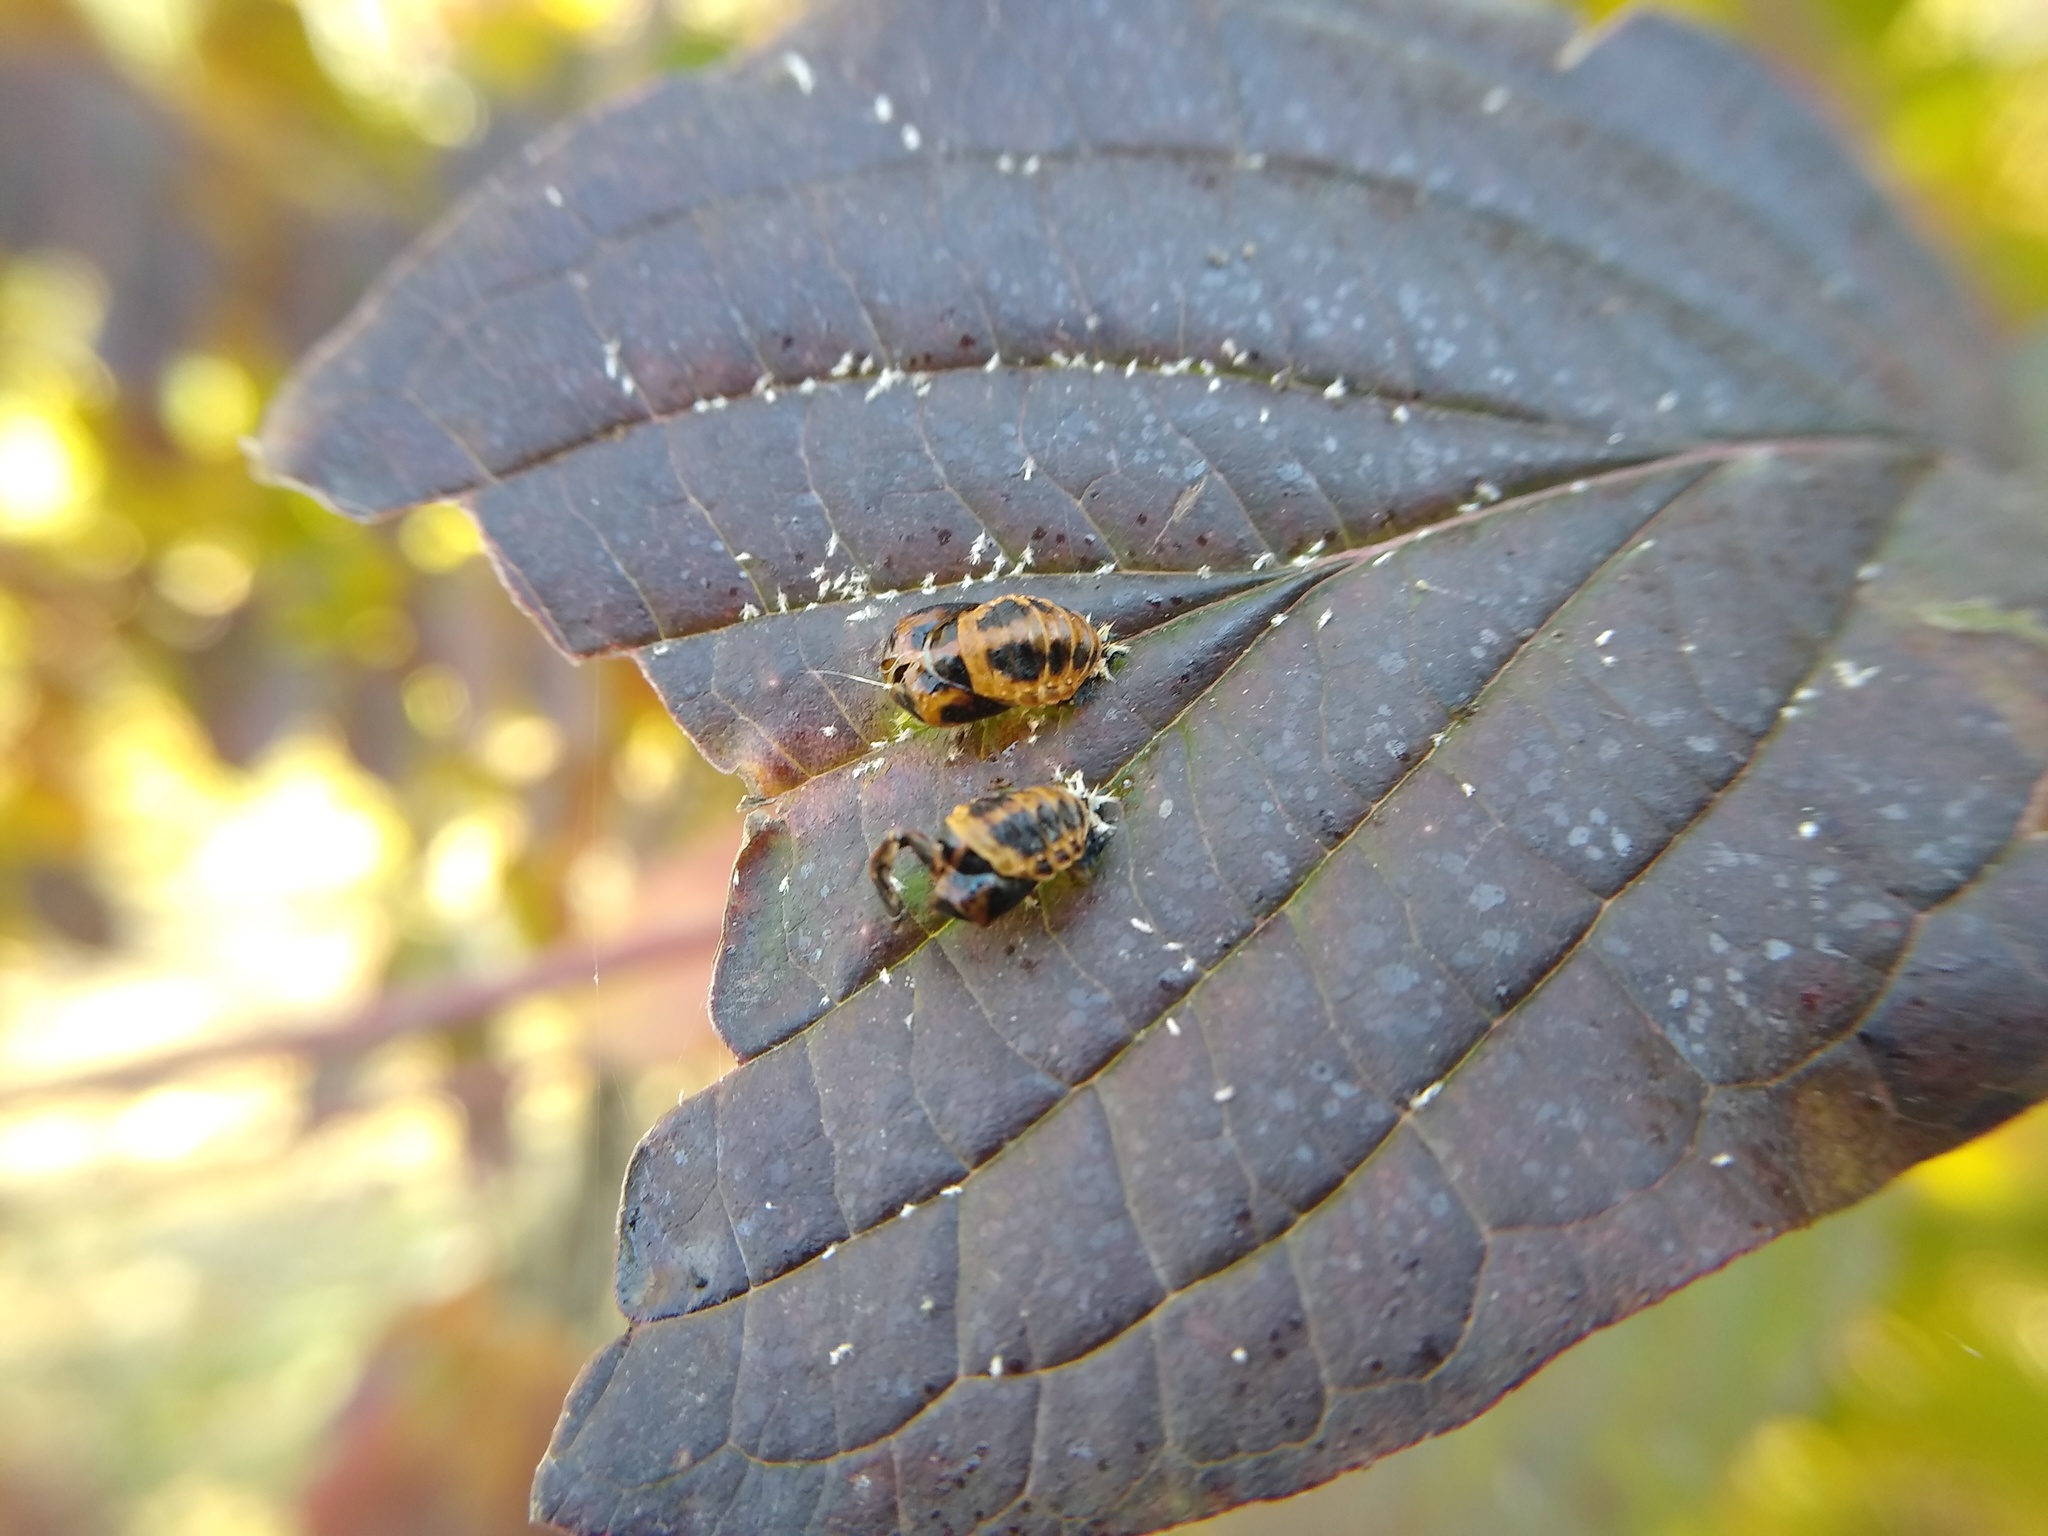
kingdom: Animalia
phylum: Arthropoda
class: Insecta
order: Coleoptera
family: Coccinellidae
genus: Harmonia
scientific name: Harmonia axyridis
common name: Harlequin ladybird
